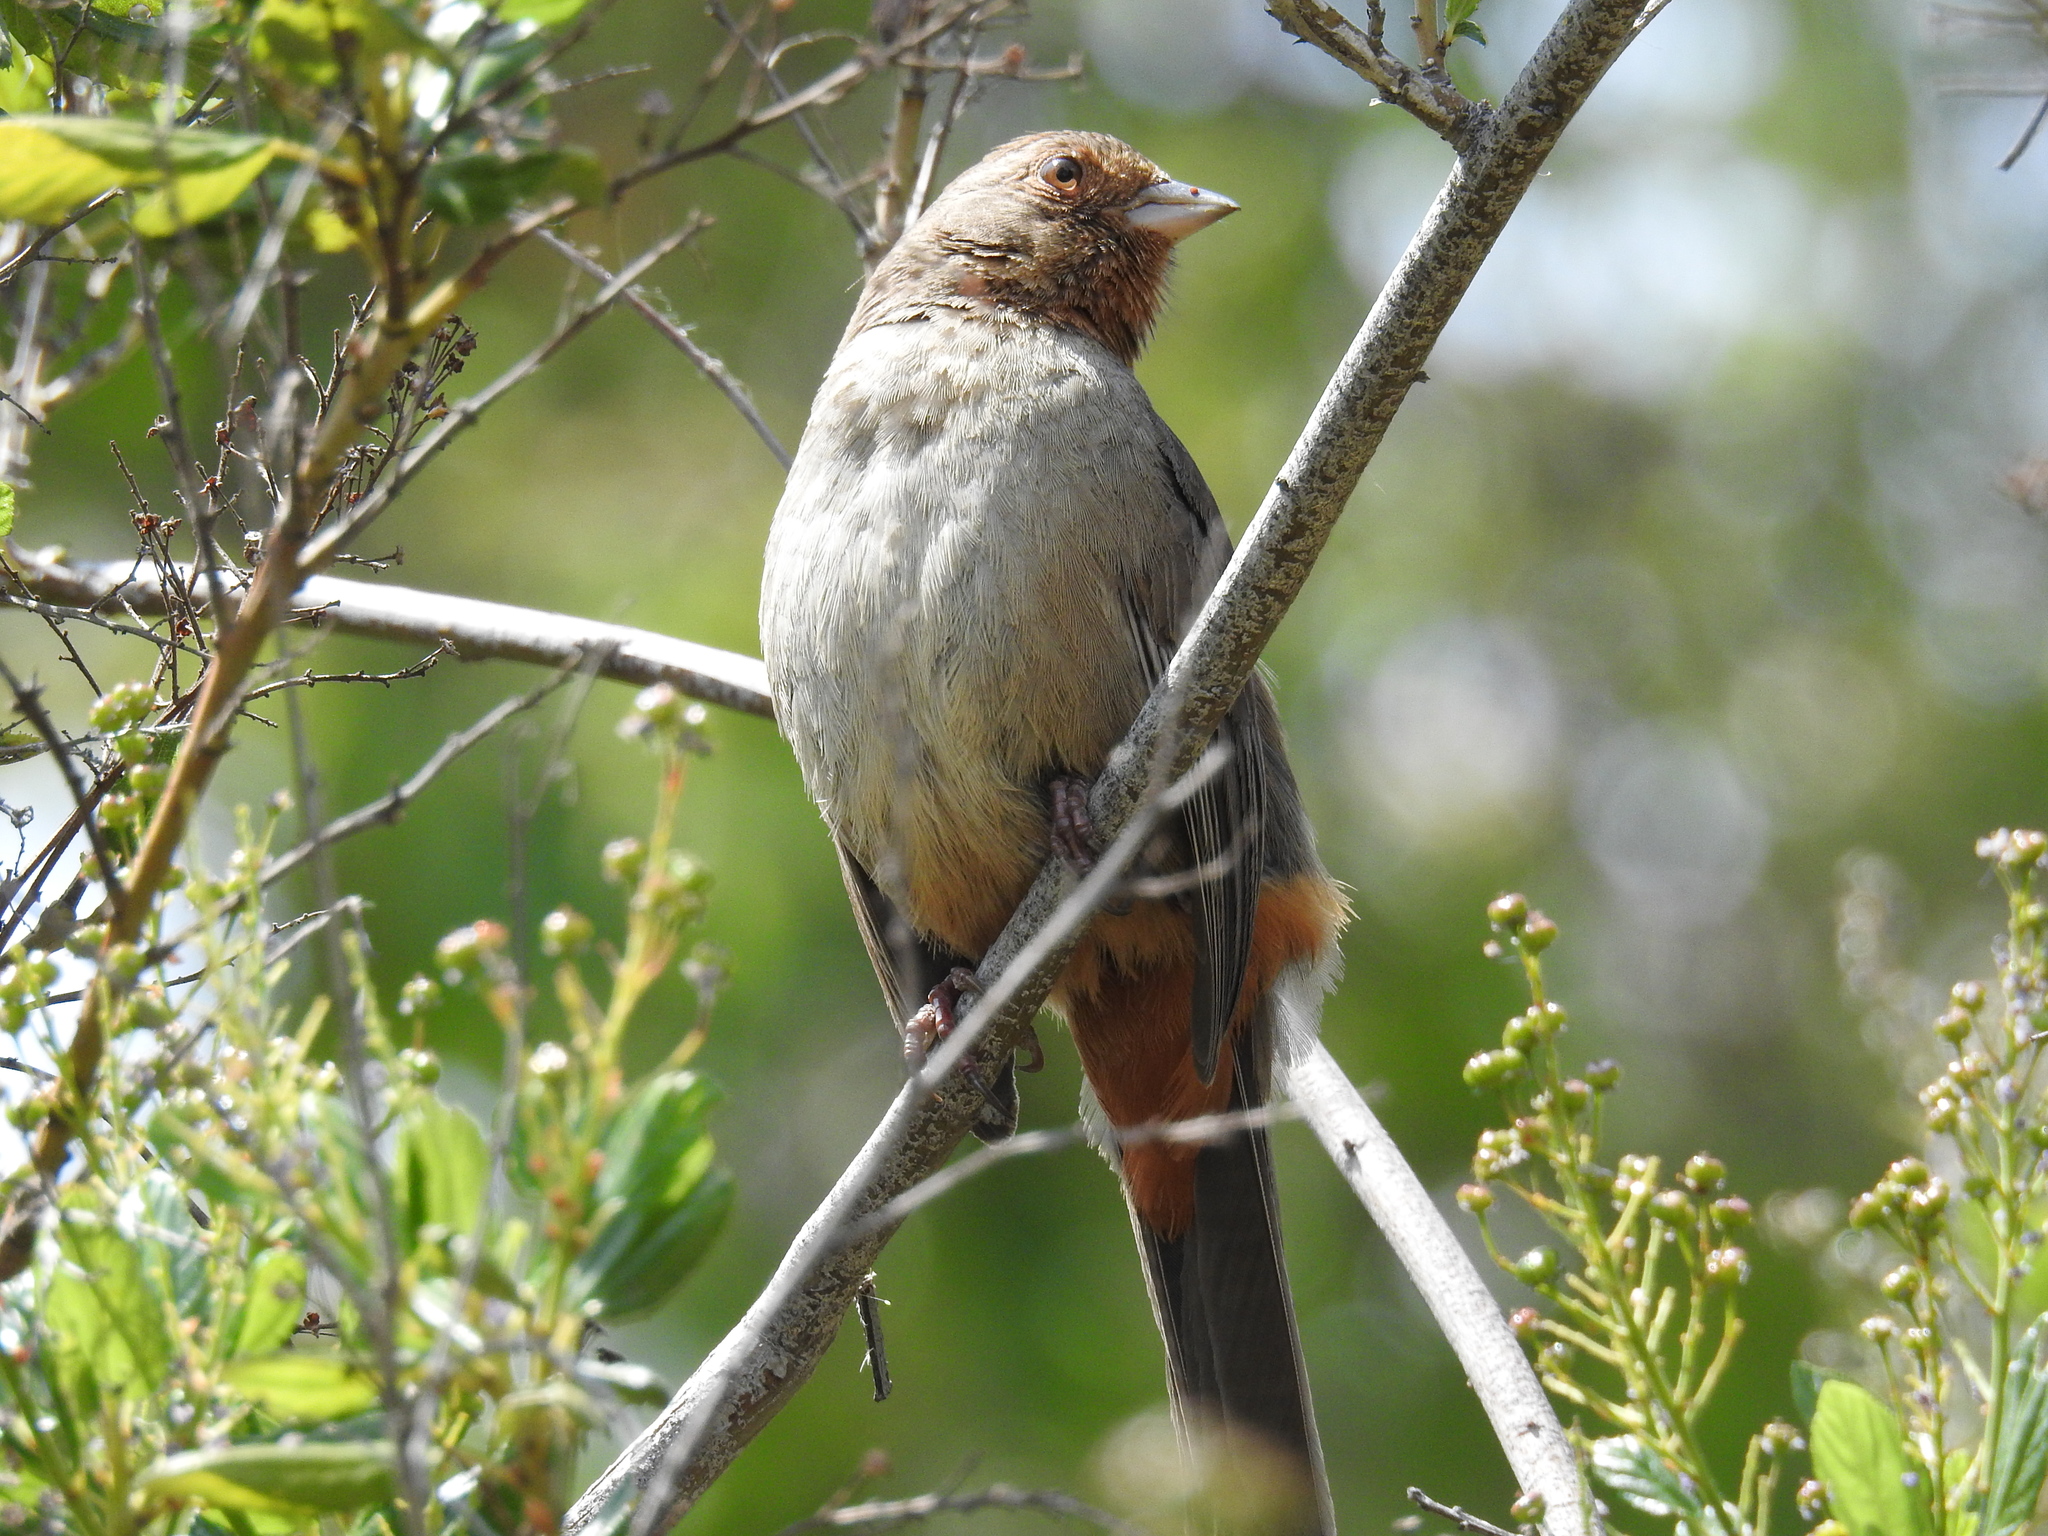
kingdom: Animalia
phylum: Chordata
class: Aves
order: Passeriformes
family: Passerellidae
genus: Melozone
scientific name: Melozone crissalis
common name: California towhee
